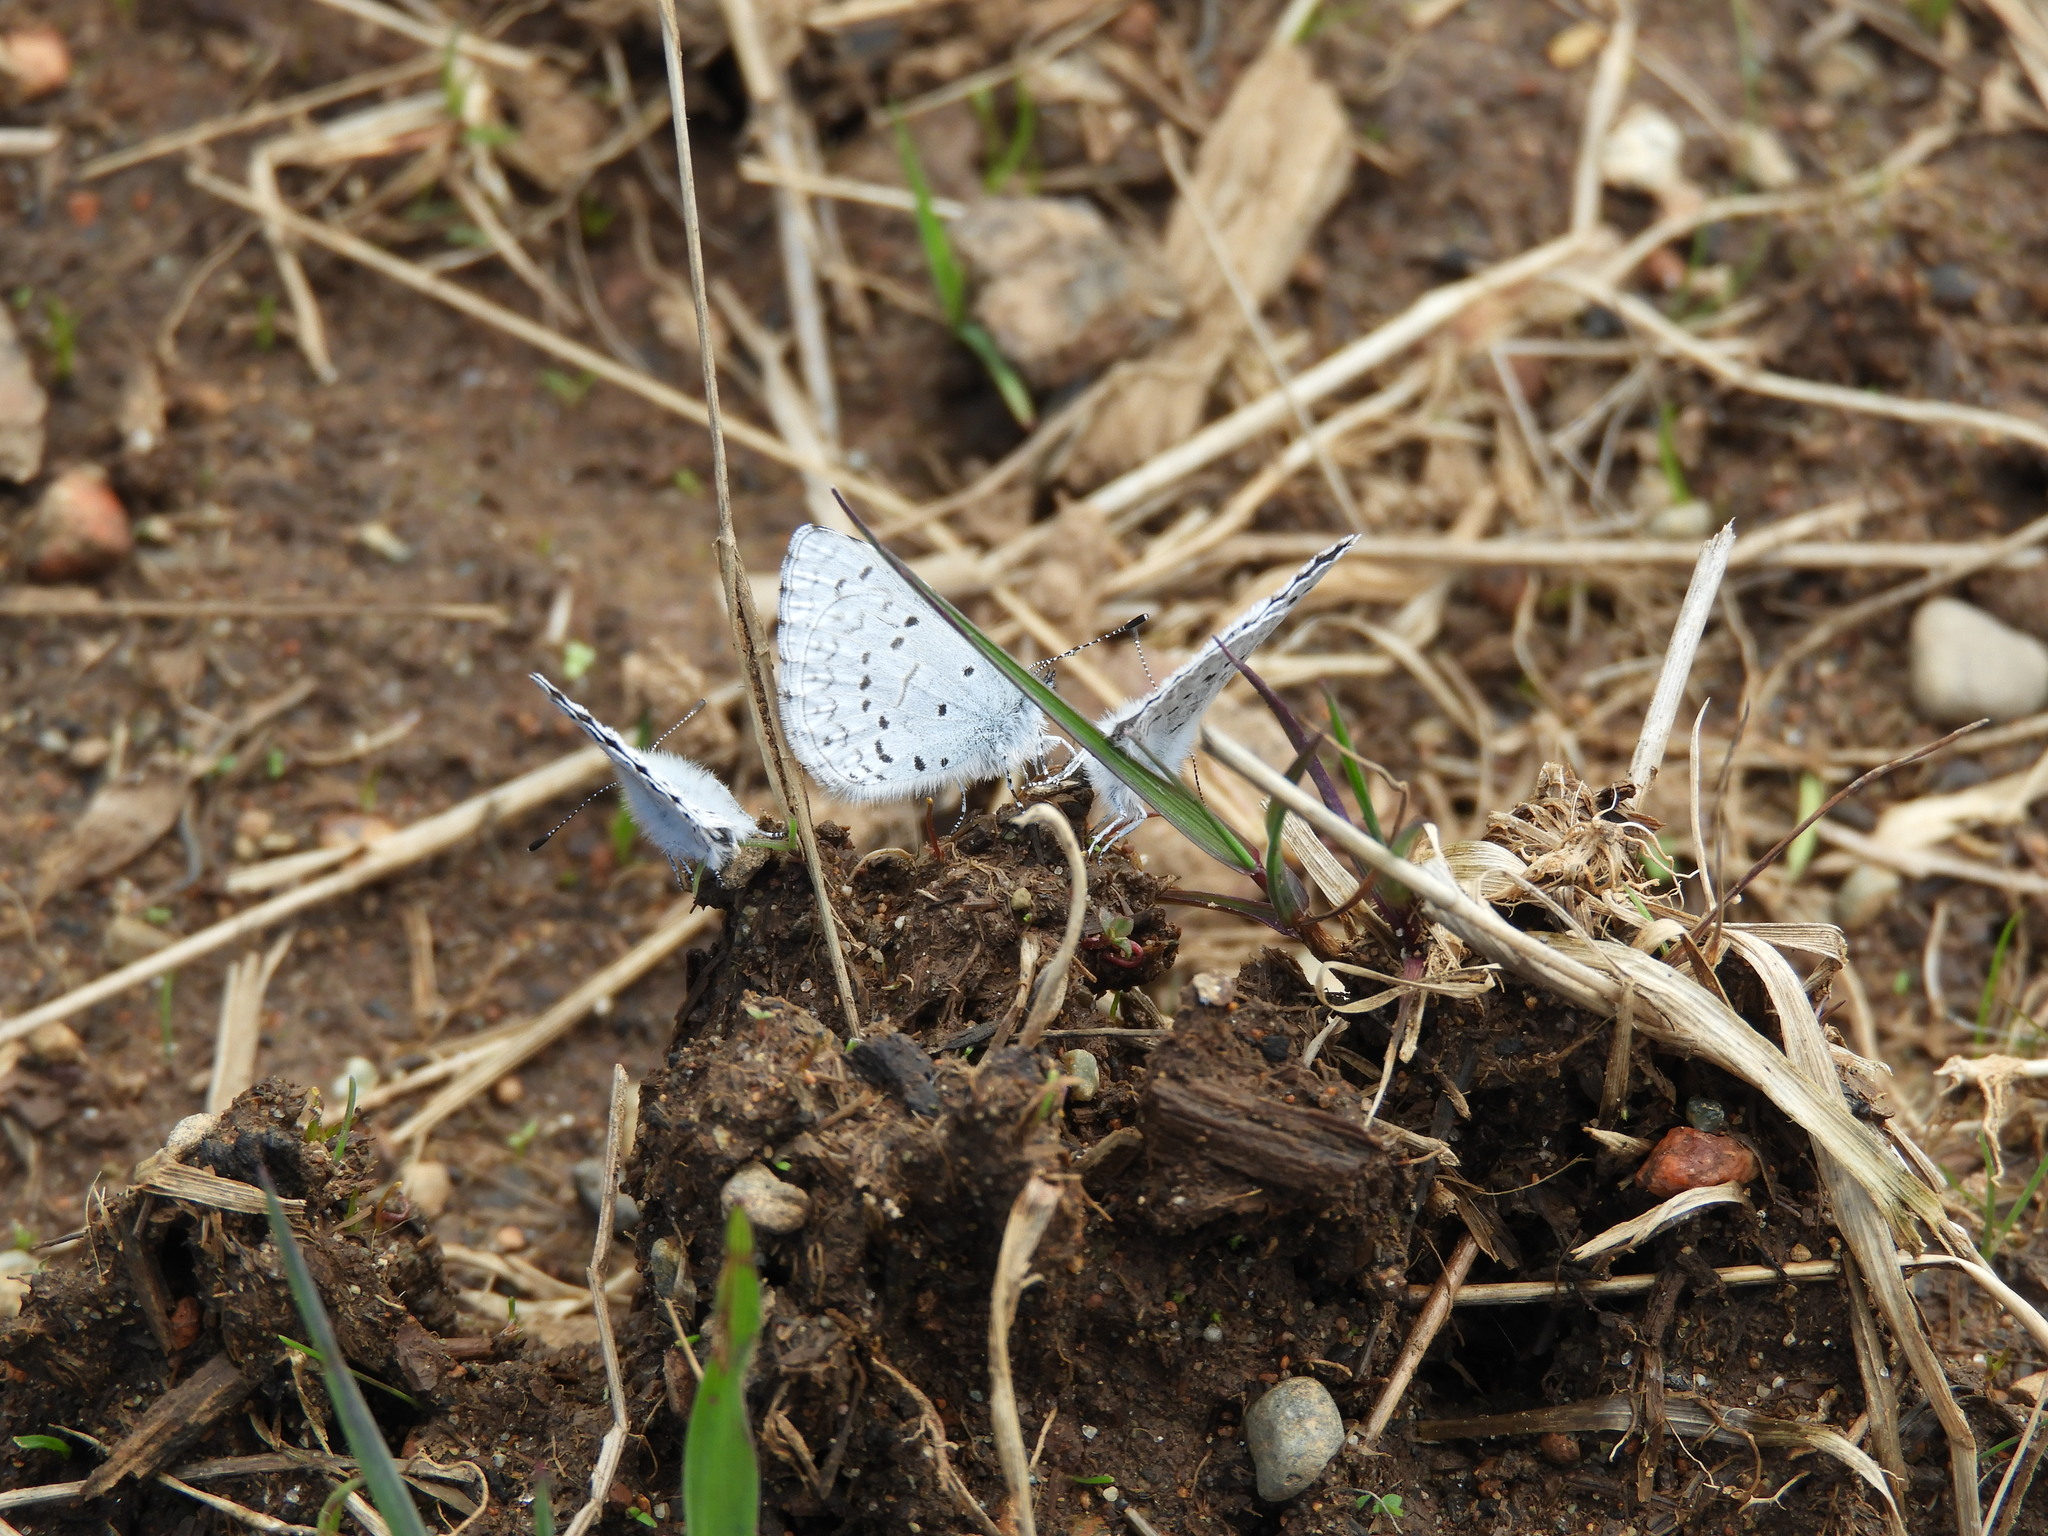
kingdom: Animalia
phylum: Arthropoda
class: Insecta
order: Lepidoptera
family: Lycaenidae
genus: Celastrina
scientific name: Celastrina ladon
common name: Spring azure
